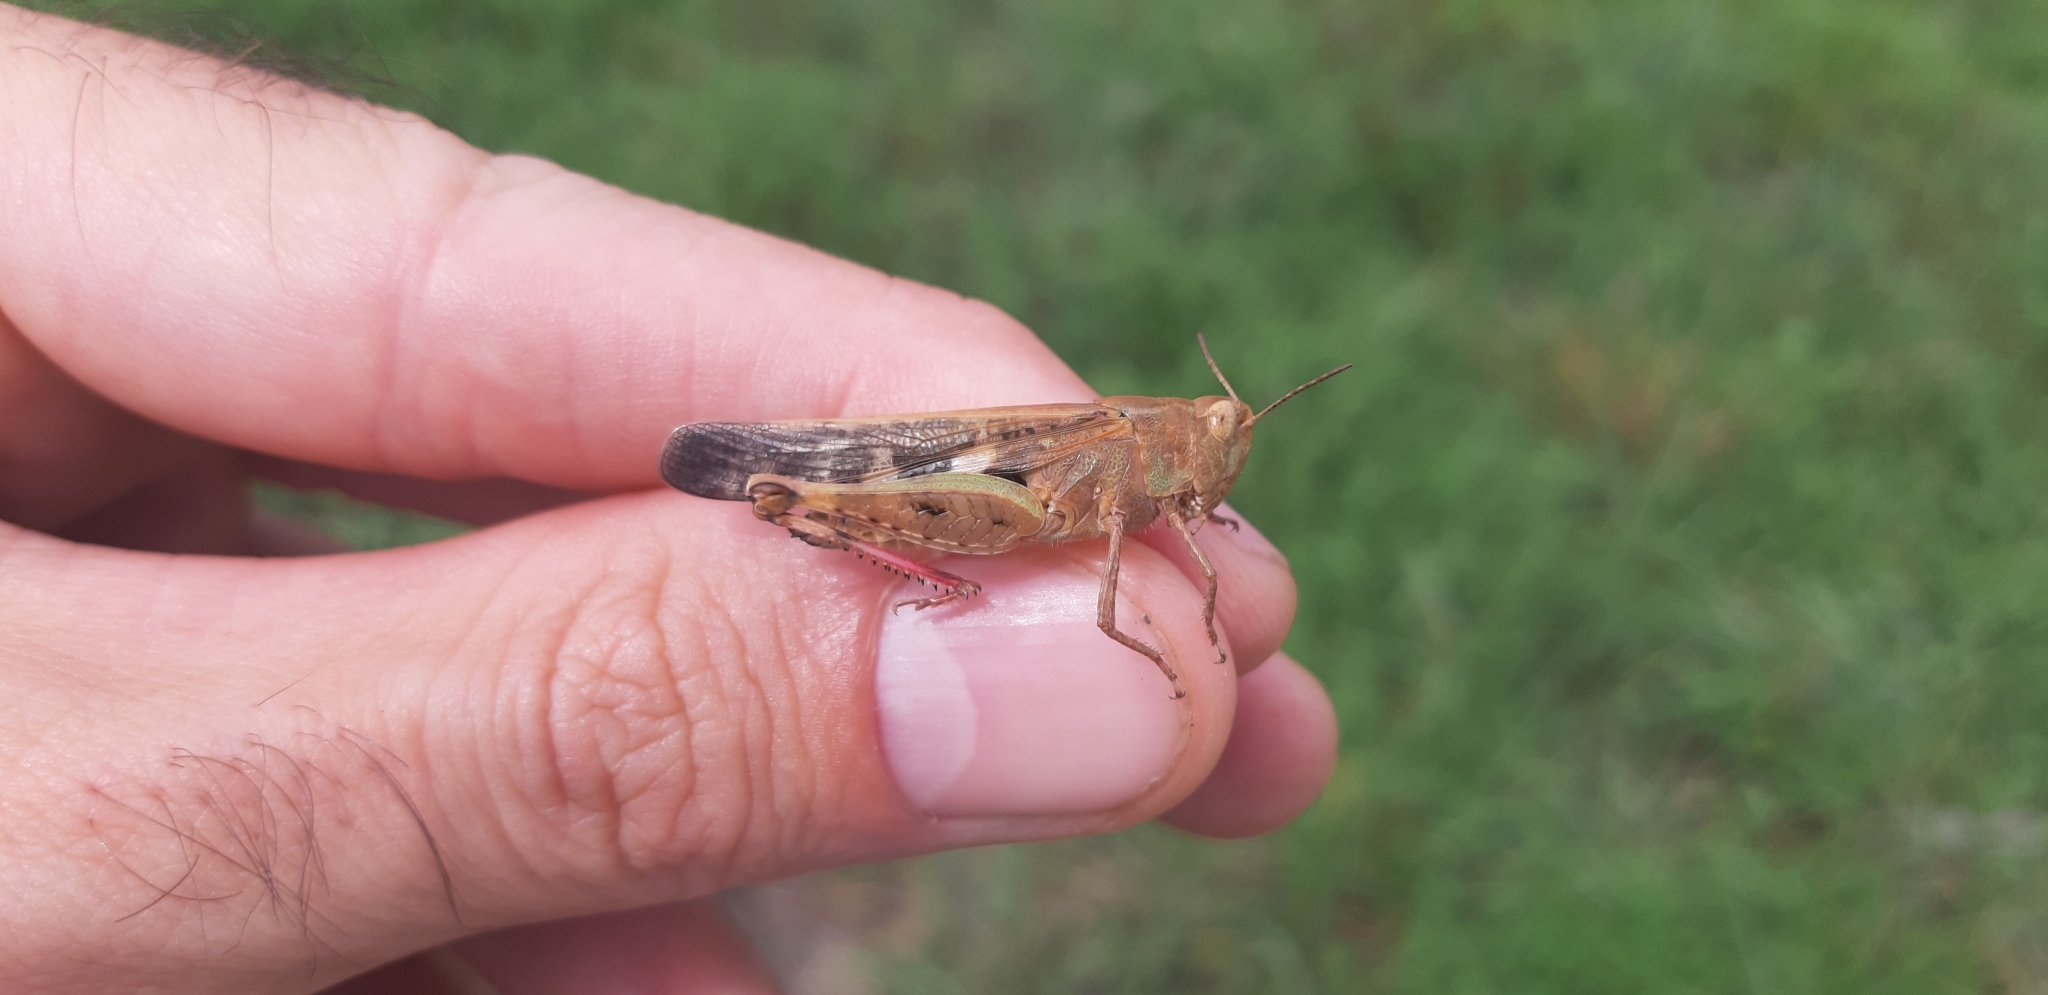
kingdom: Animalia
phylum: Arthropoda
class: Insecta
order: Orthoptera
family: Acrididae
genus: Aiolopus
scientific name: Aiolopus strepens
